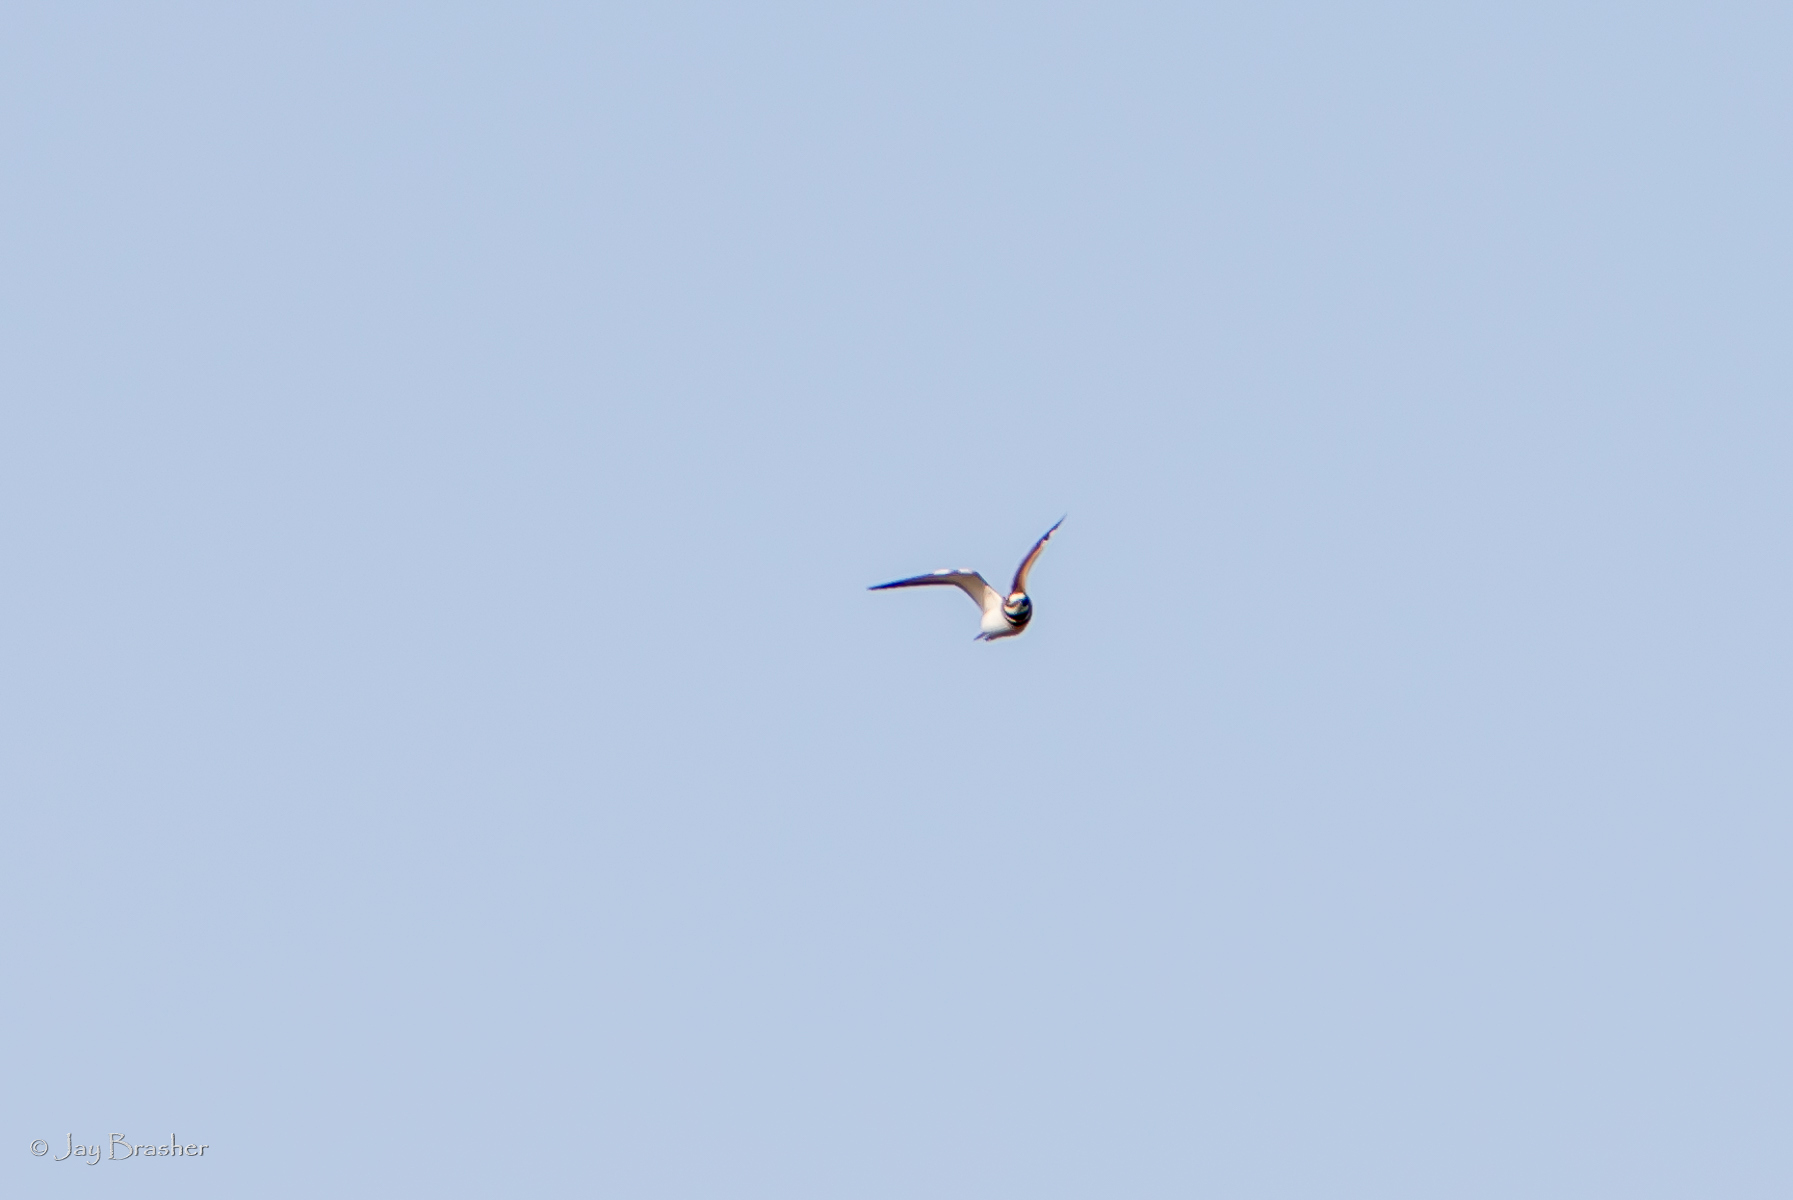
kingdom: Animalia
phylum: Chordata
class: Aves
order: Charadriiformes
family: Charadriidae
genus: Charadrius
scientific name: Charadrius vociferus
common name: Killdeer
